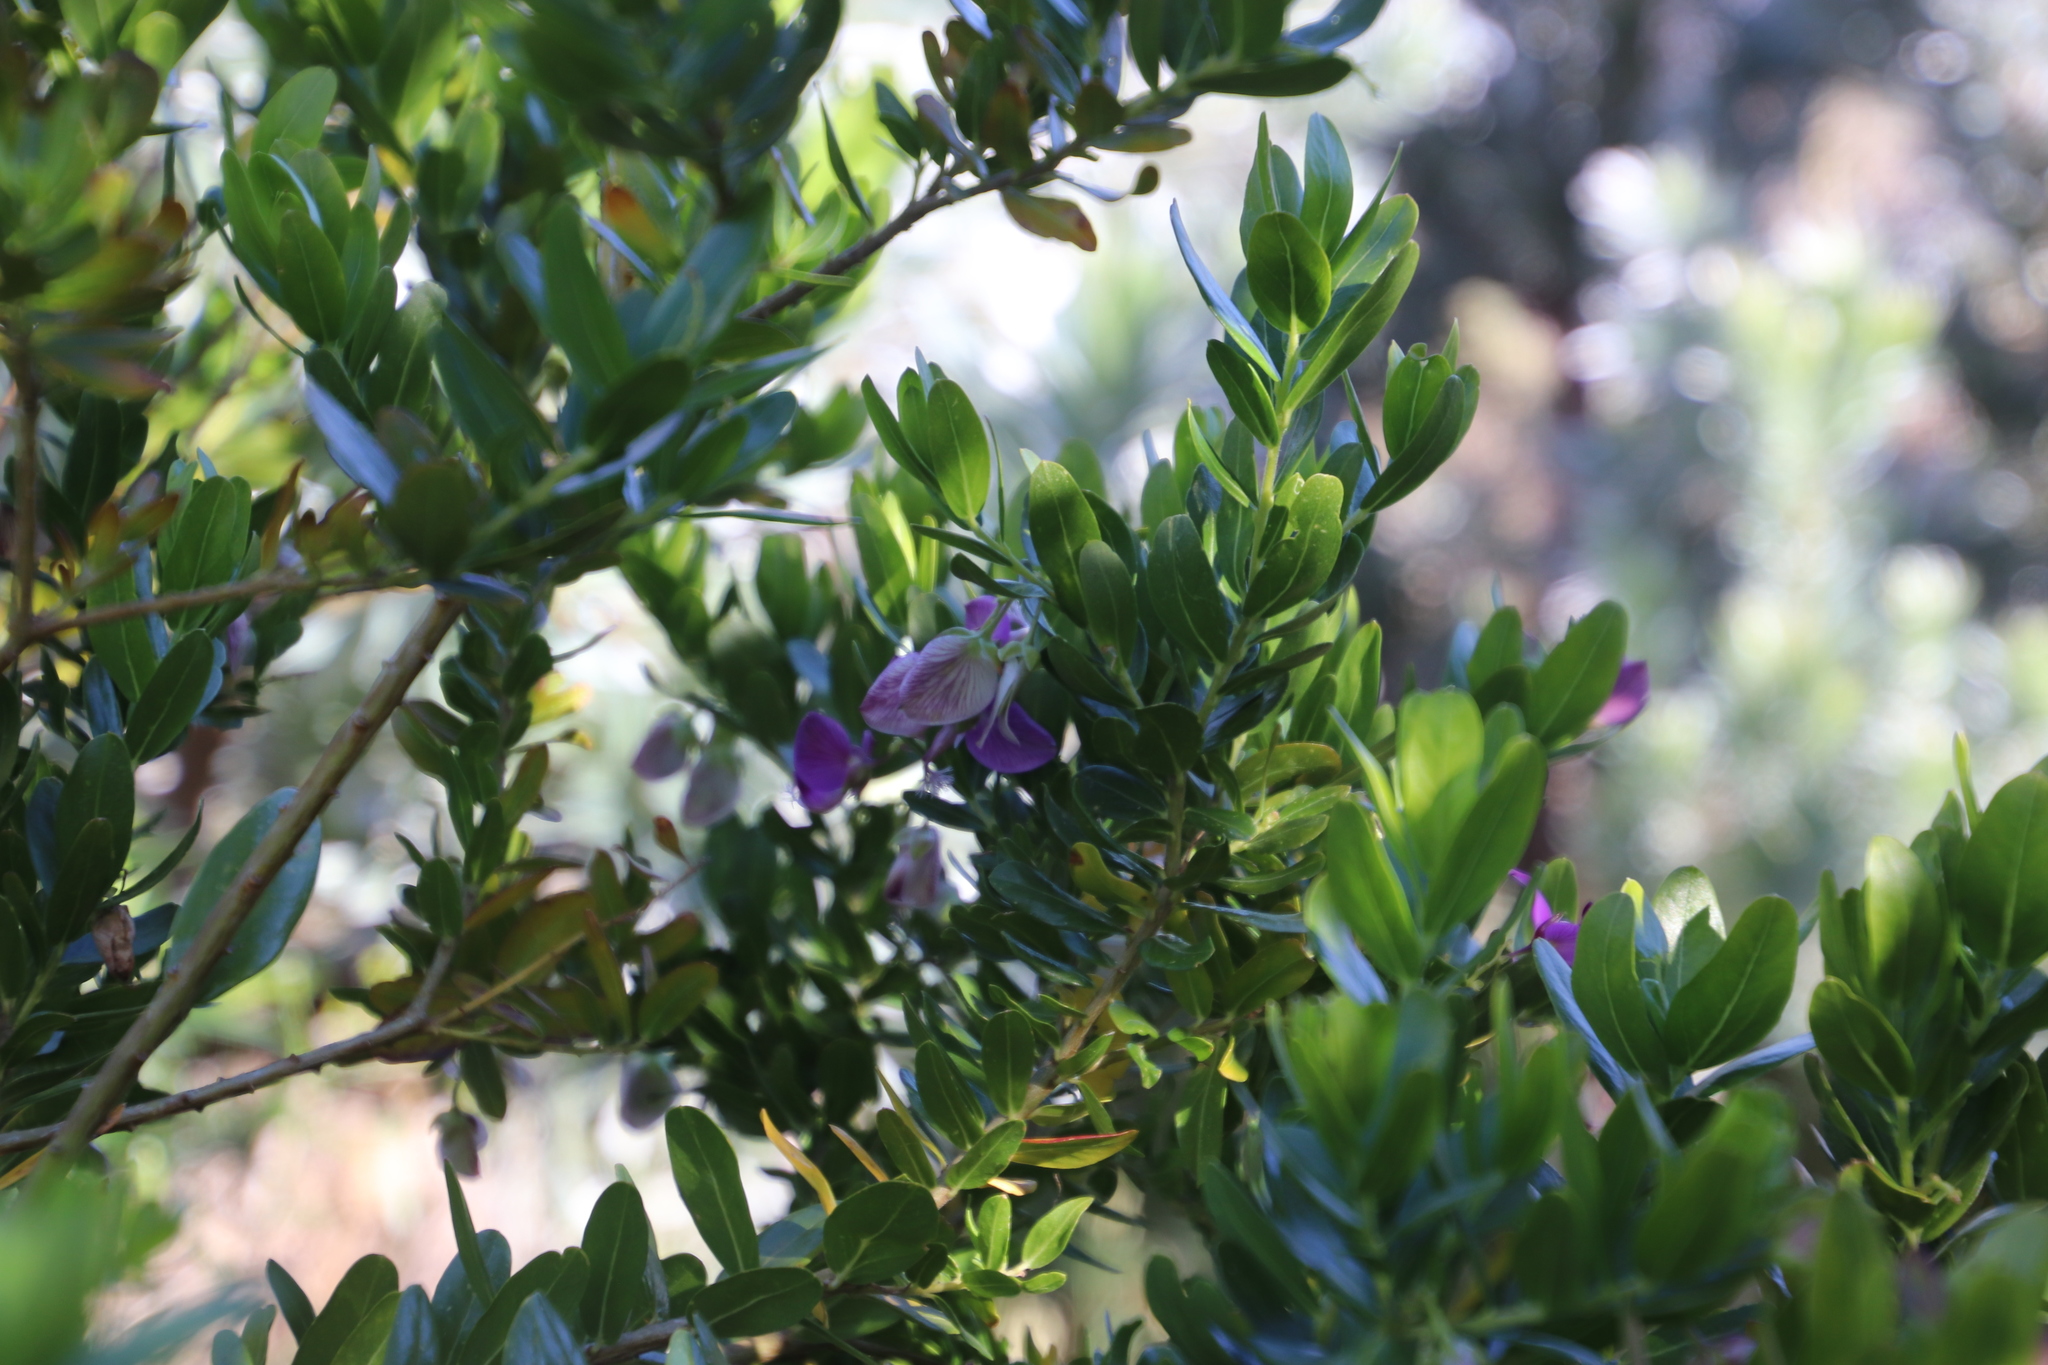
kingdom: Plantae
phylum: Tracheophyta
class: Magnoliopsida
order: Fabales
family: Polygalaceae
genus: Polygala
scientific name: Polygala myrtifolia
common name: Myrtle-leaf milkwort
